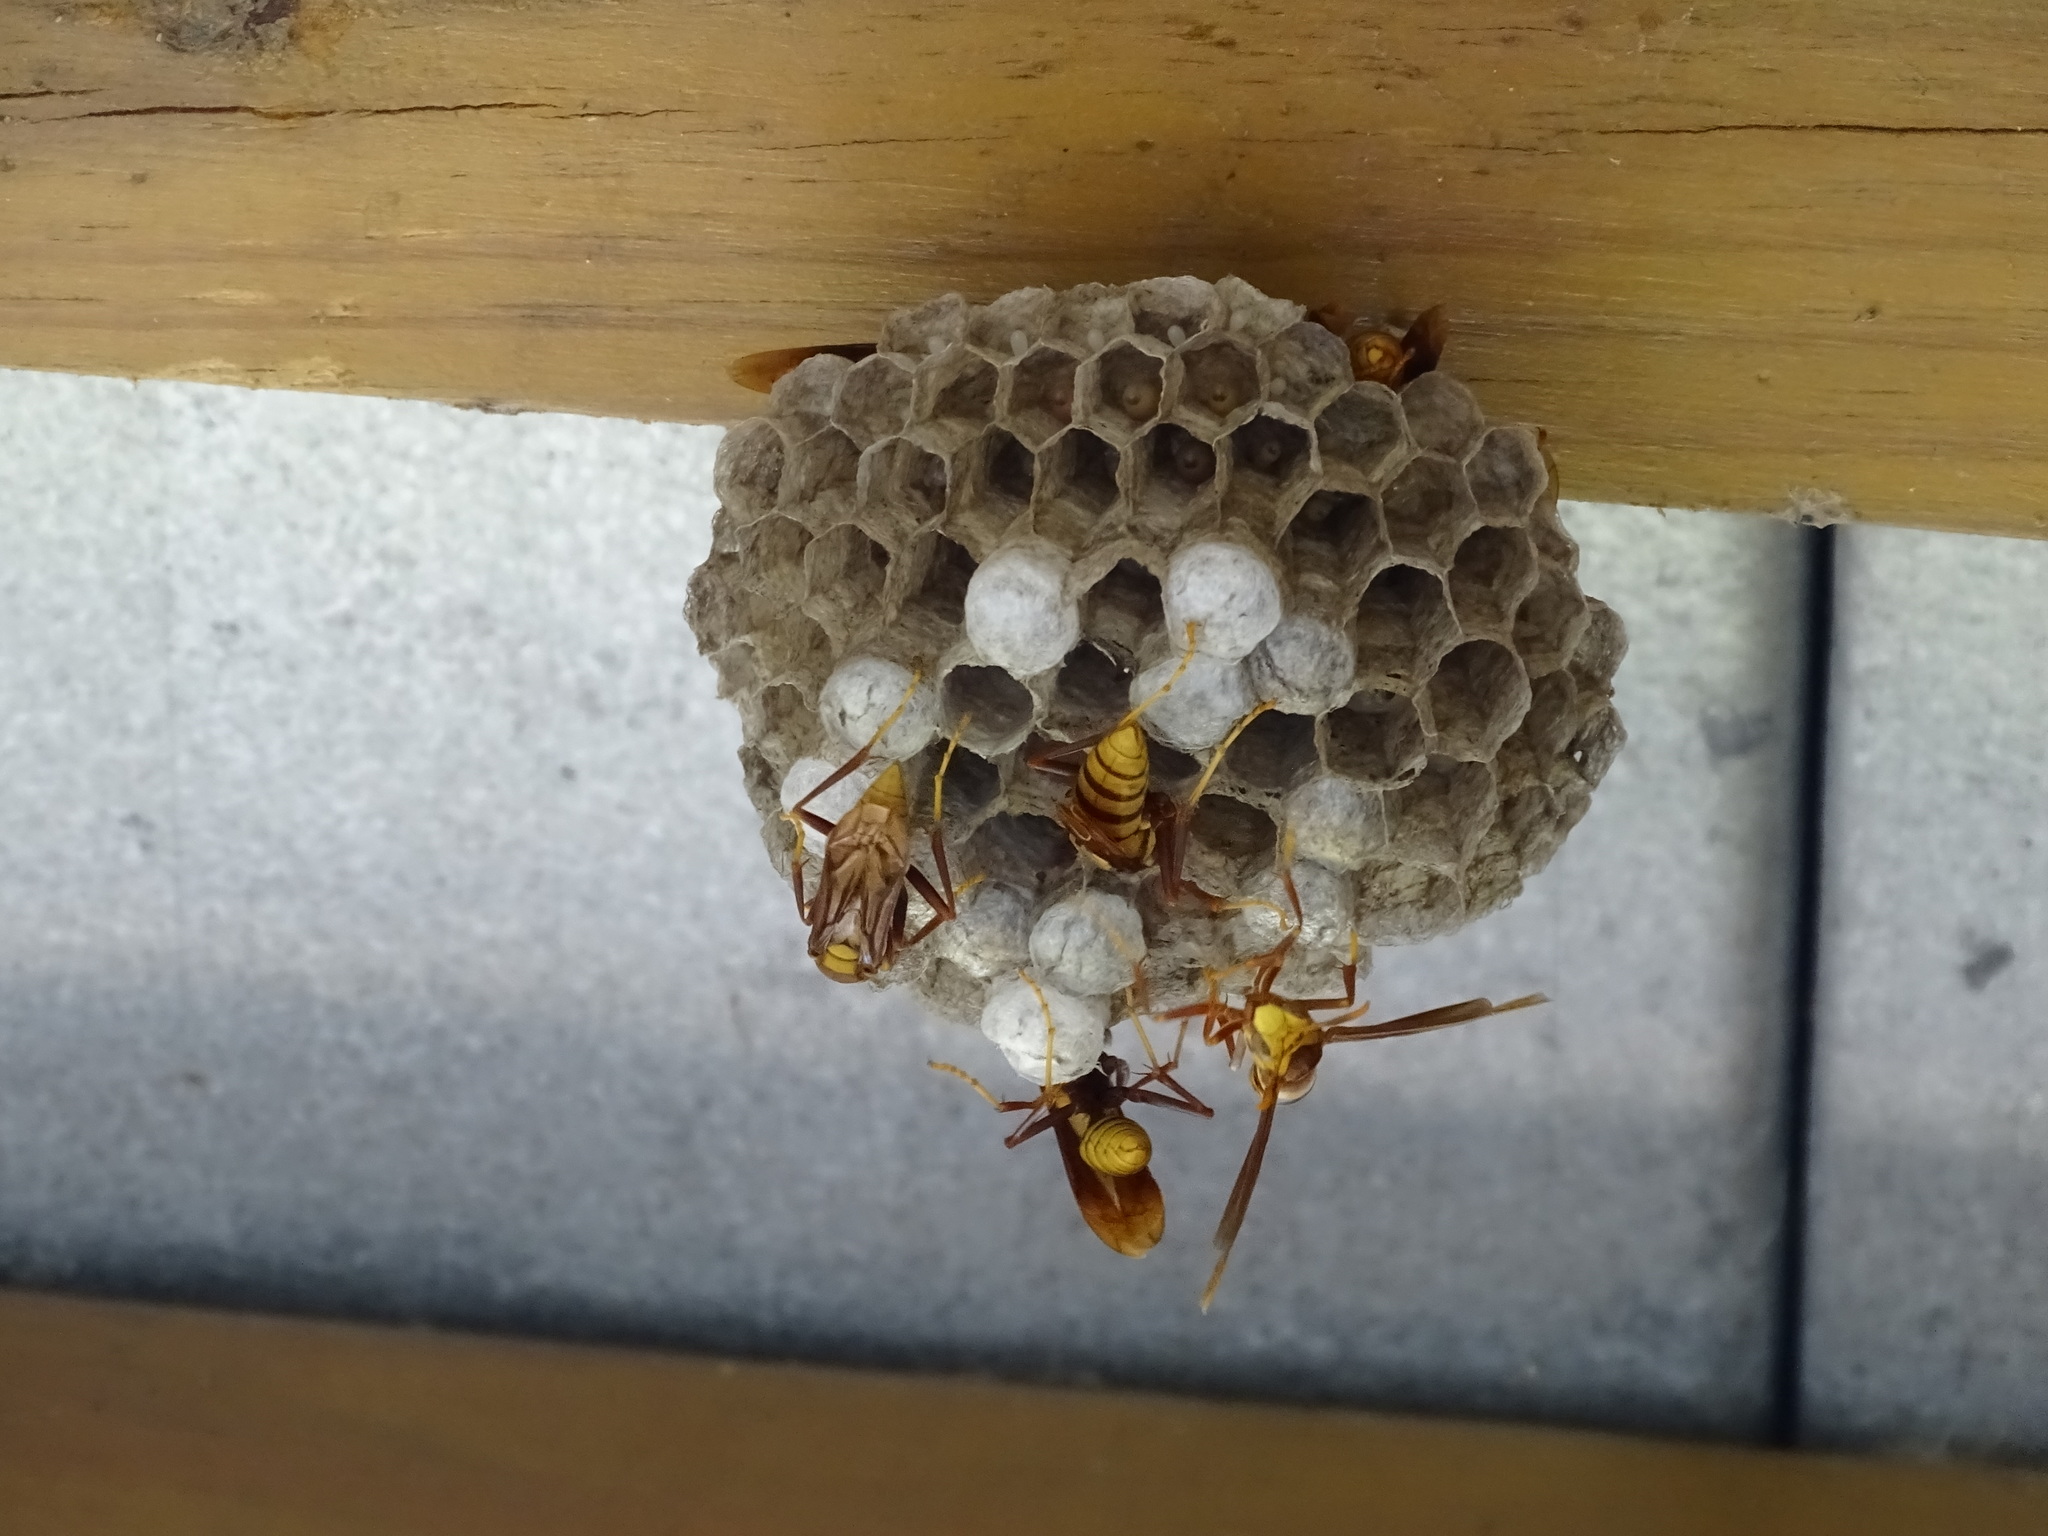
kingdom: Animalia
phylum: Arthropoda
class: Insecta
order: Hymenoptera
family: Eumenidae
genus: Polistes
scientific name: Polistes major
